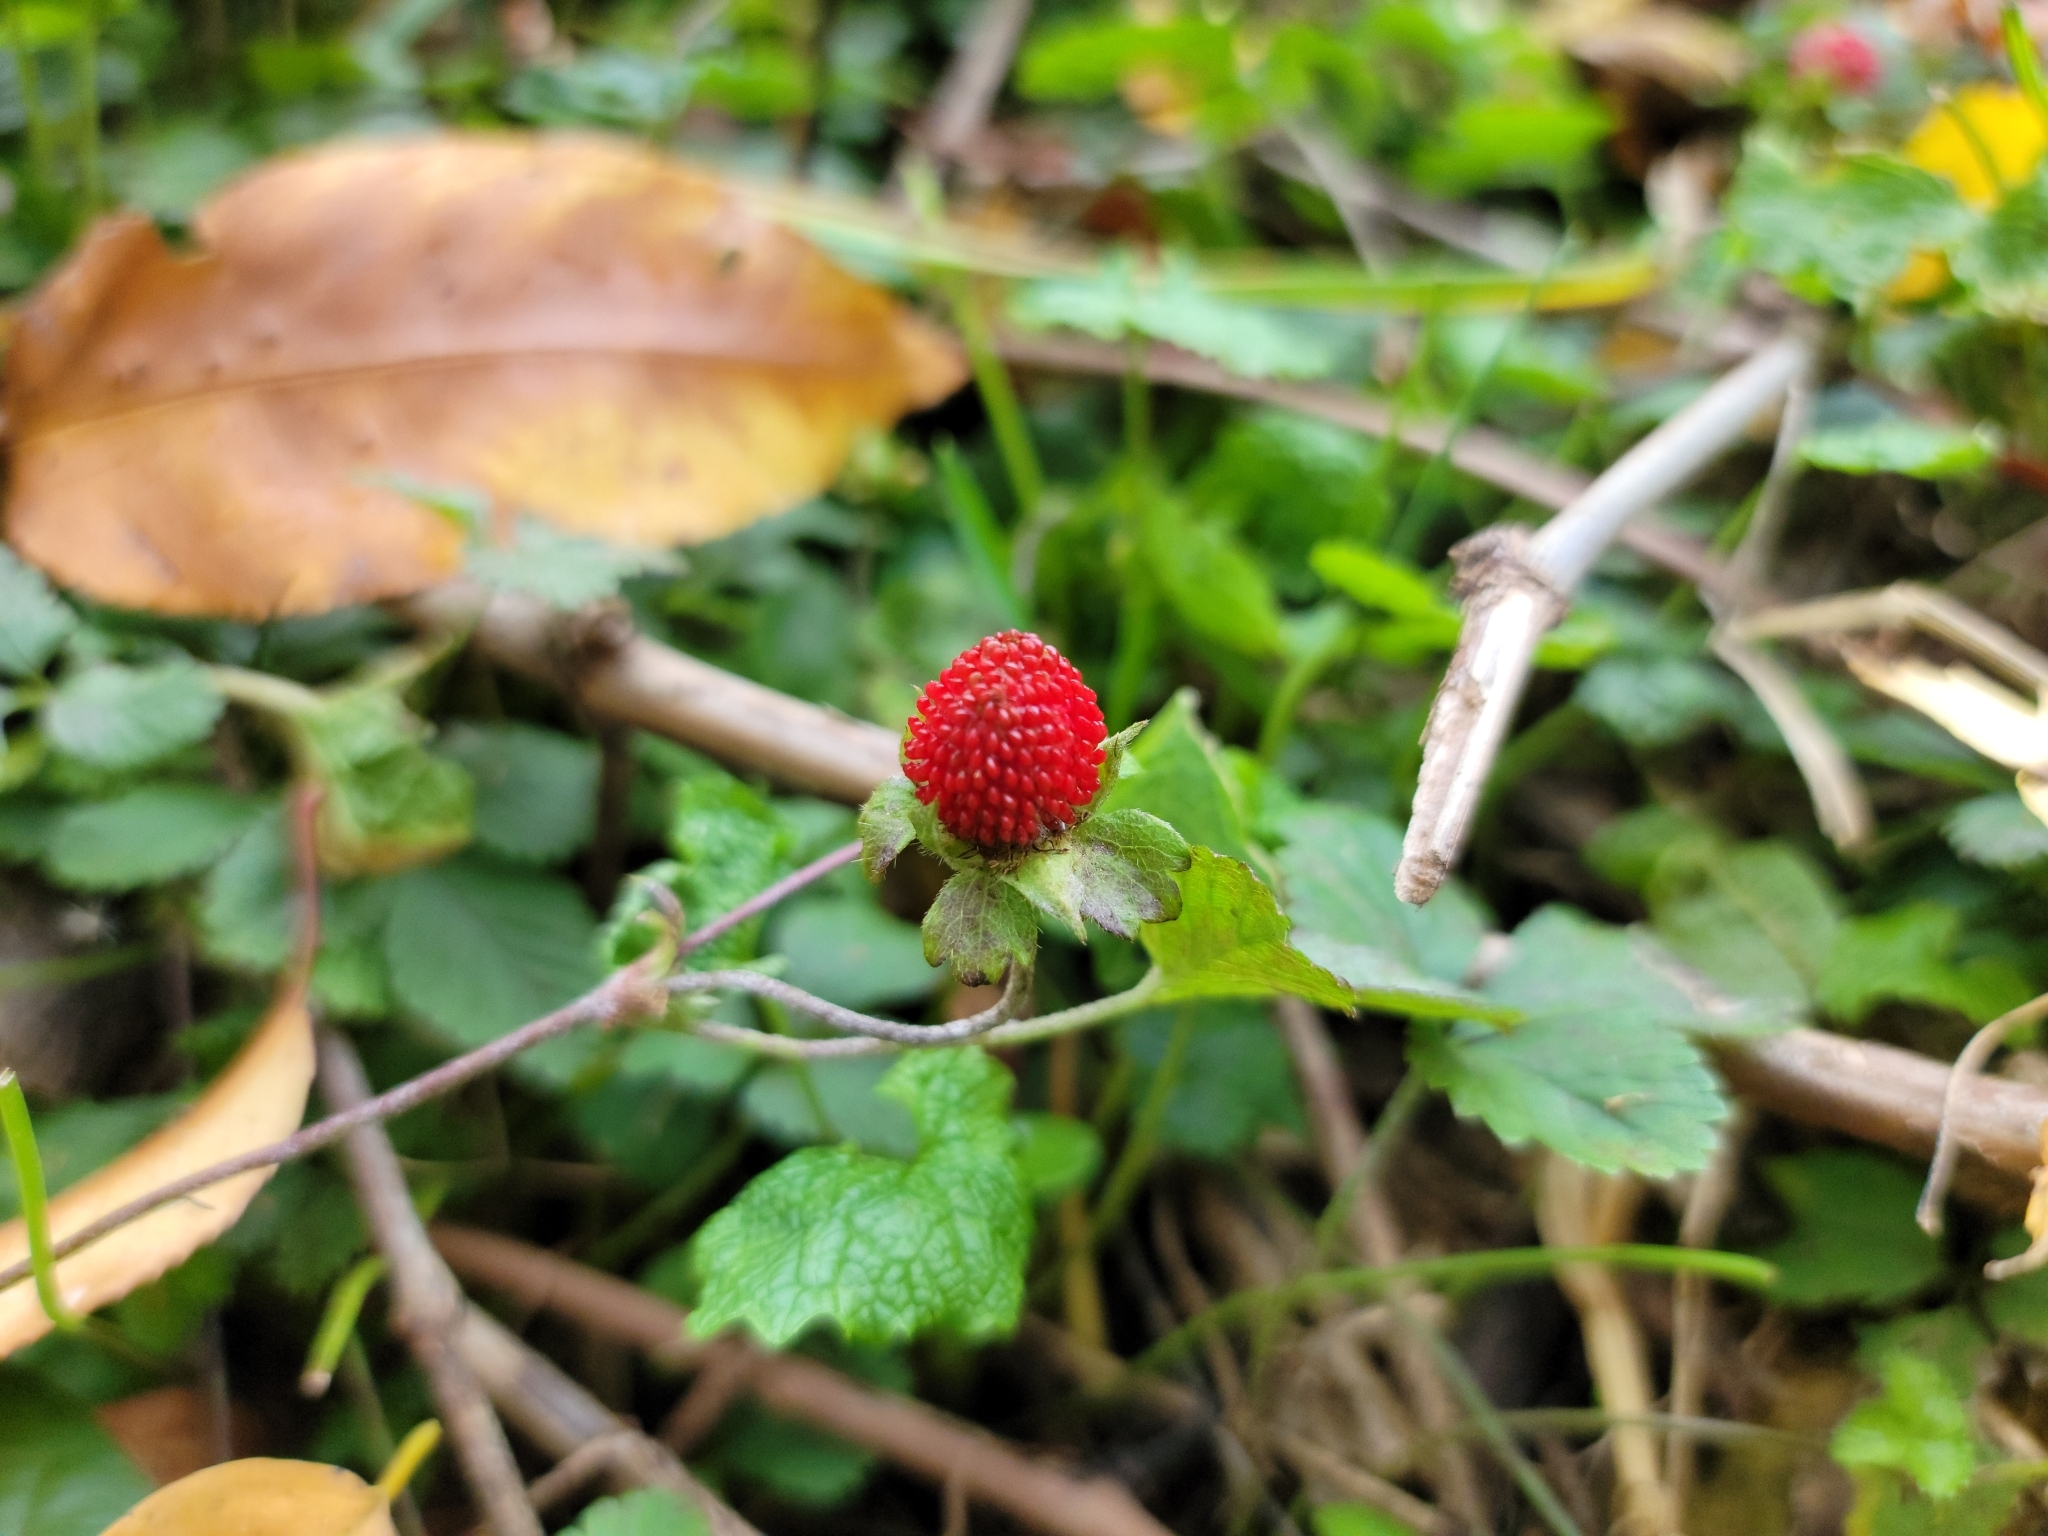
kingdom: Plantae
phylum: Tracheophyta
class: Magnoliopsida
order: Rosales
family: Rosaceae
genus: Potentilla
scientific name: Potentilla indica
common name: Yellow-flowered strawberry
